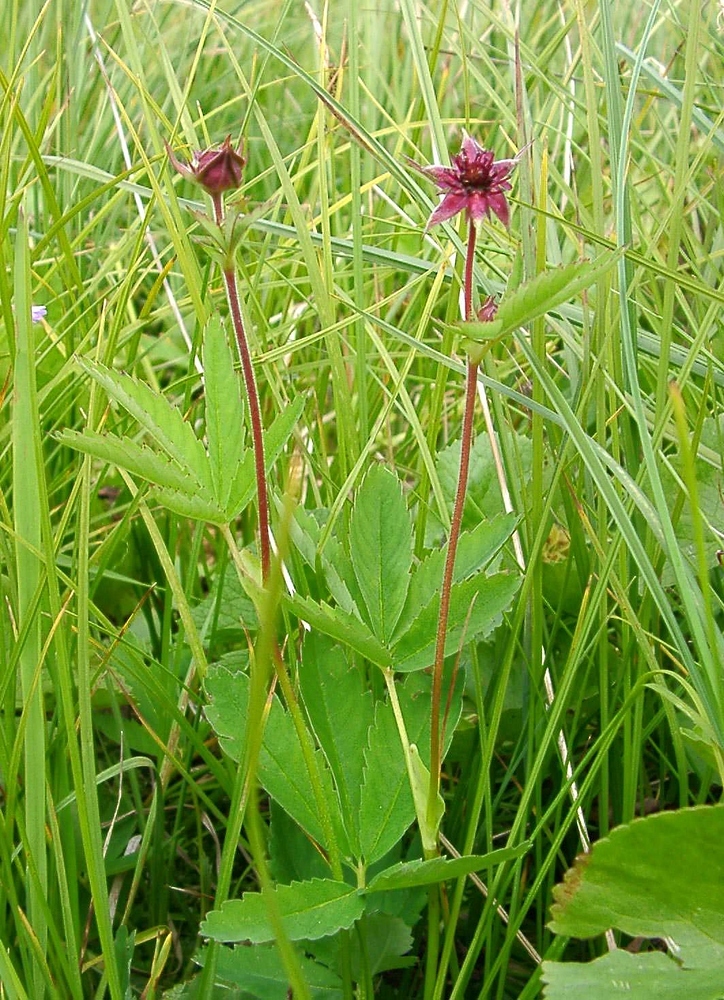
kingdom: Plantae
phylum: Tracheophyta
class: Magnoliopsida
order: Rosales
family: Rosaceae
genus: Comarum
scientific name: Comarum palustre
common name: Marsh cinquefoil
